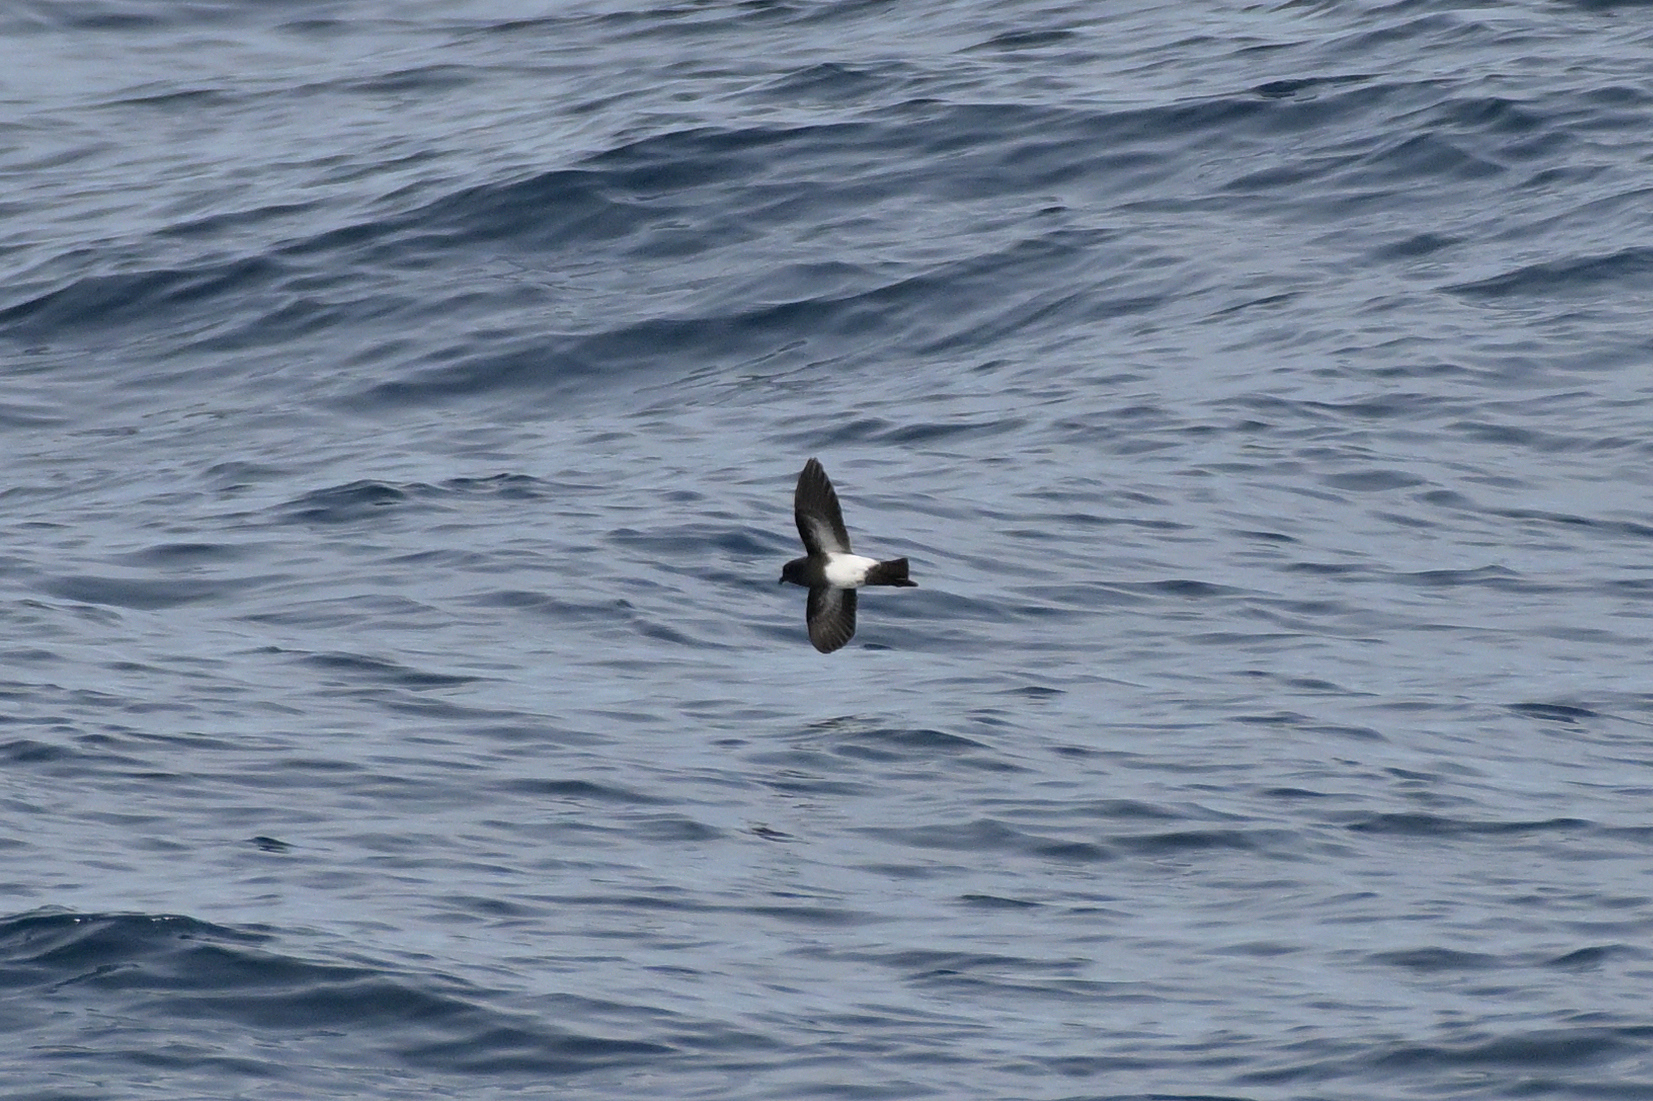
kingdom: Animalia
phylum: Chordata
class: Aves
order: Procellariiformes
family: Hydrobatidae
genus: Fregetta
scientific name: Fregetta tropica
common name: Black-bellied storm-petrel
